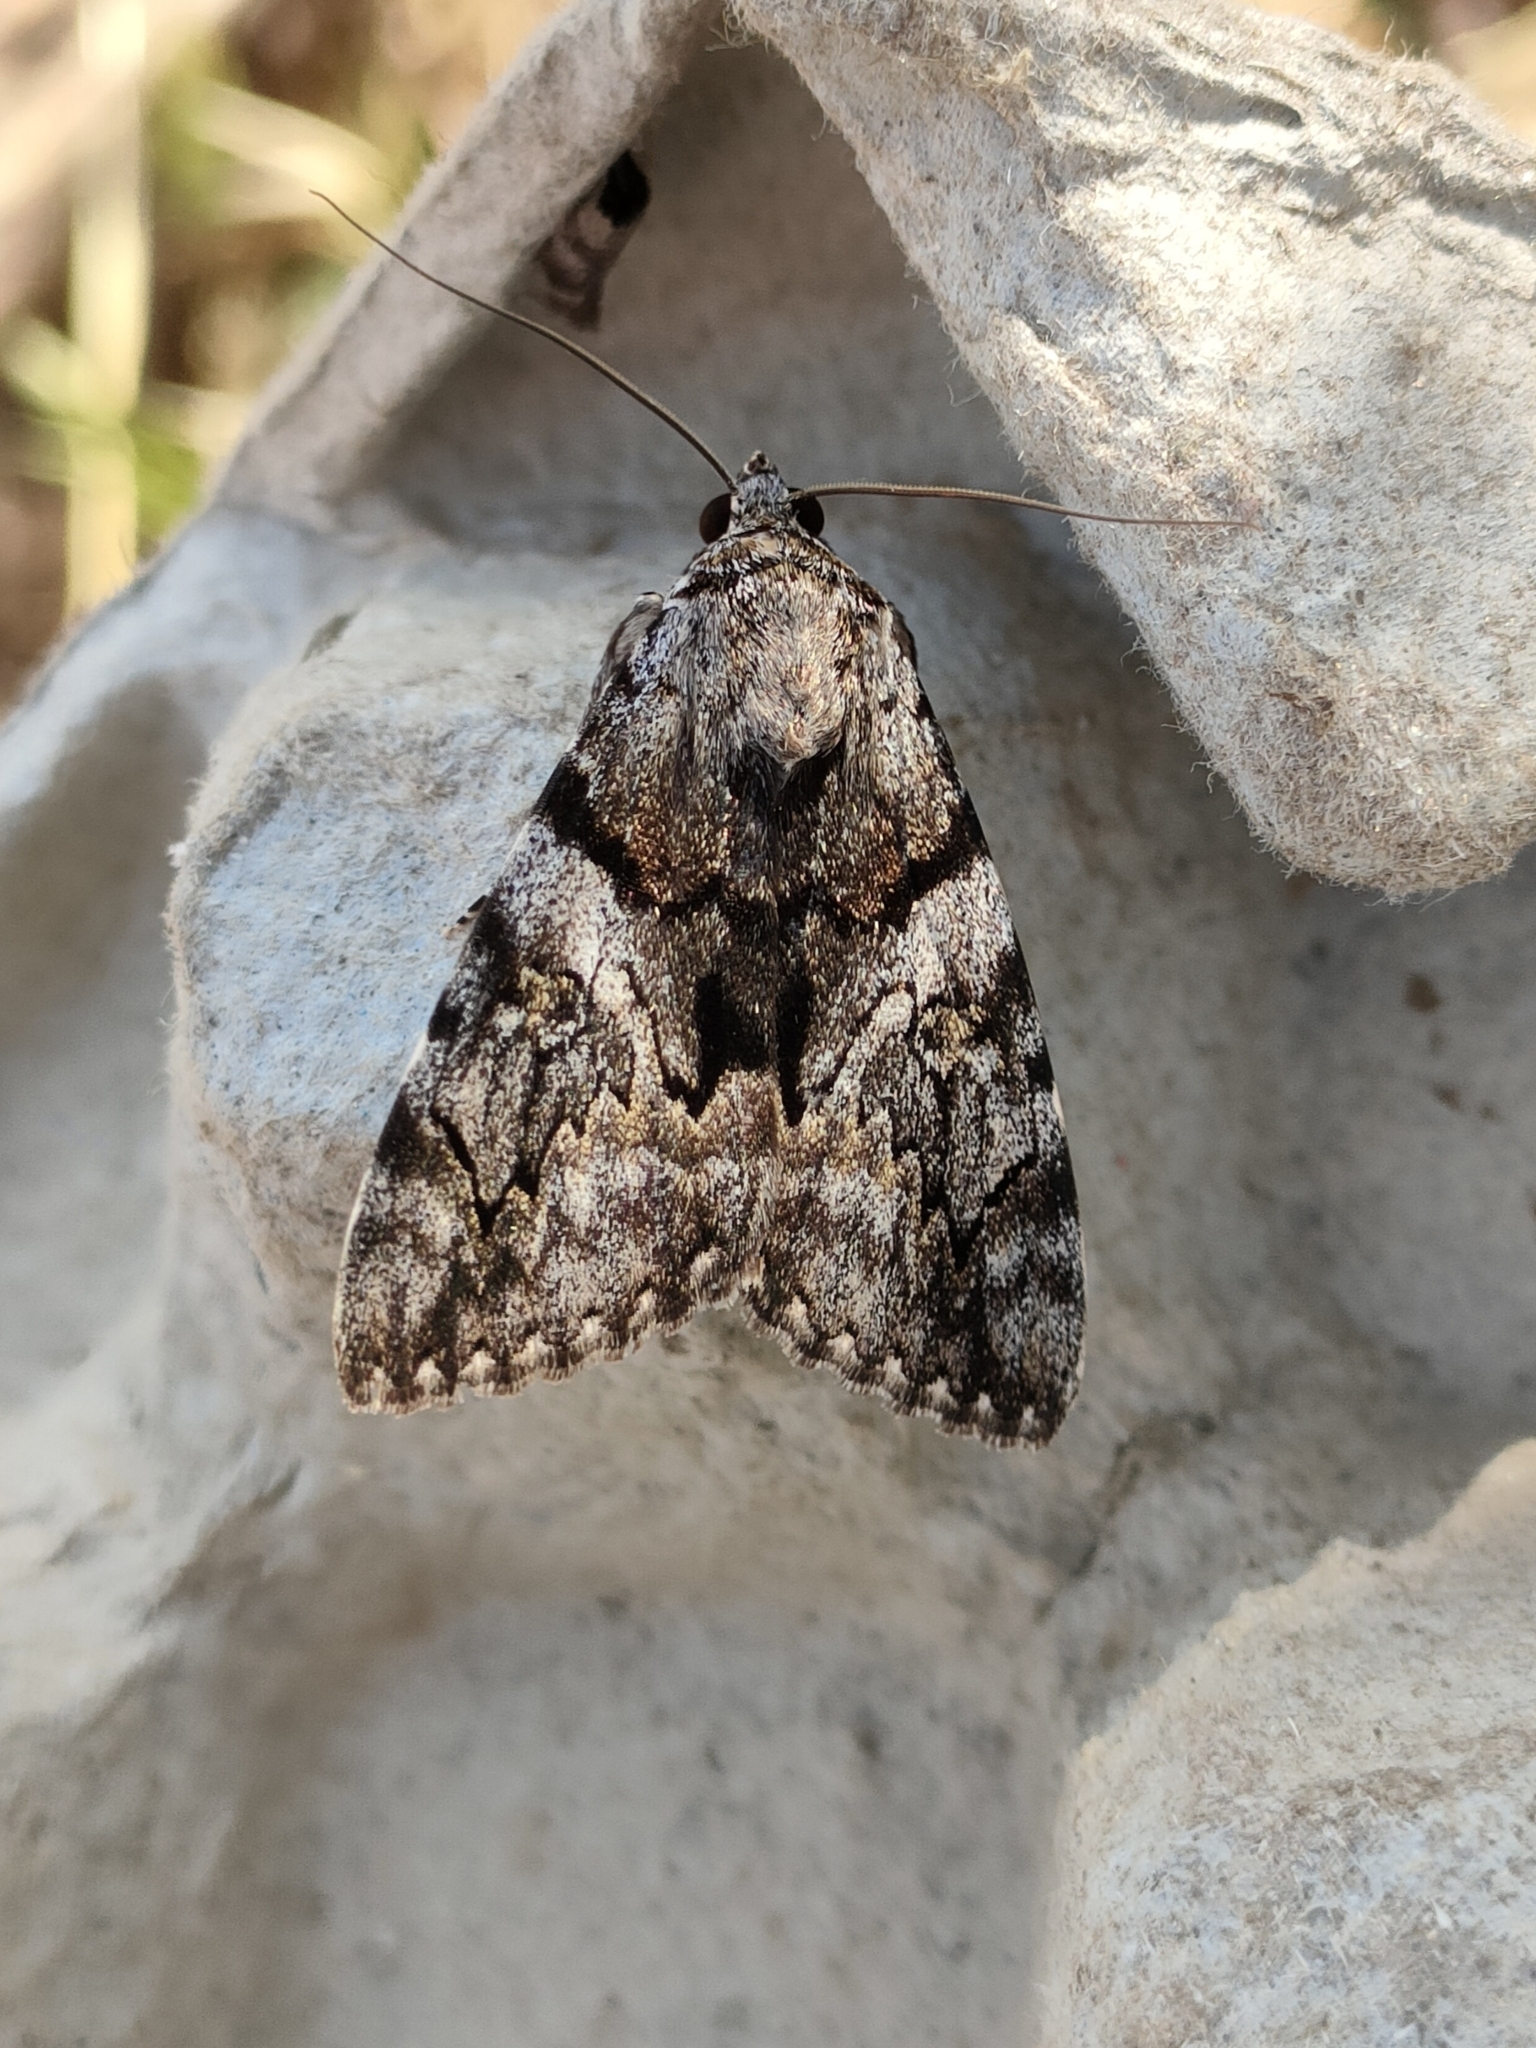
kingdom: Animalia
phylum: Arthropoda
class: Insecta
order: Lepidoptera
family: Erebidae
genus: Catocala
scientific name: Catocala conversa
